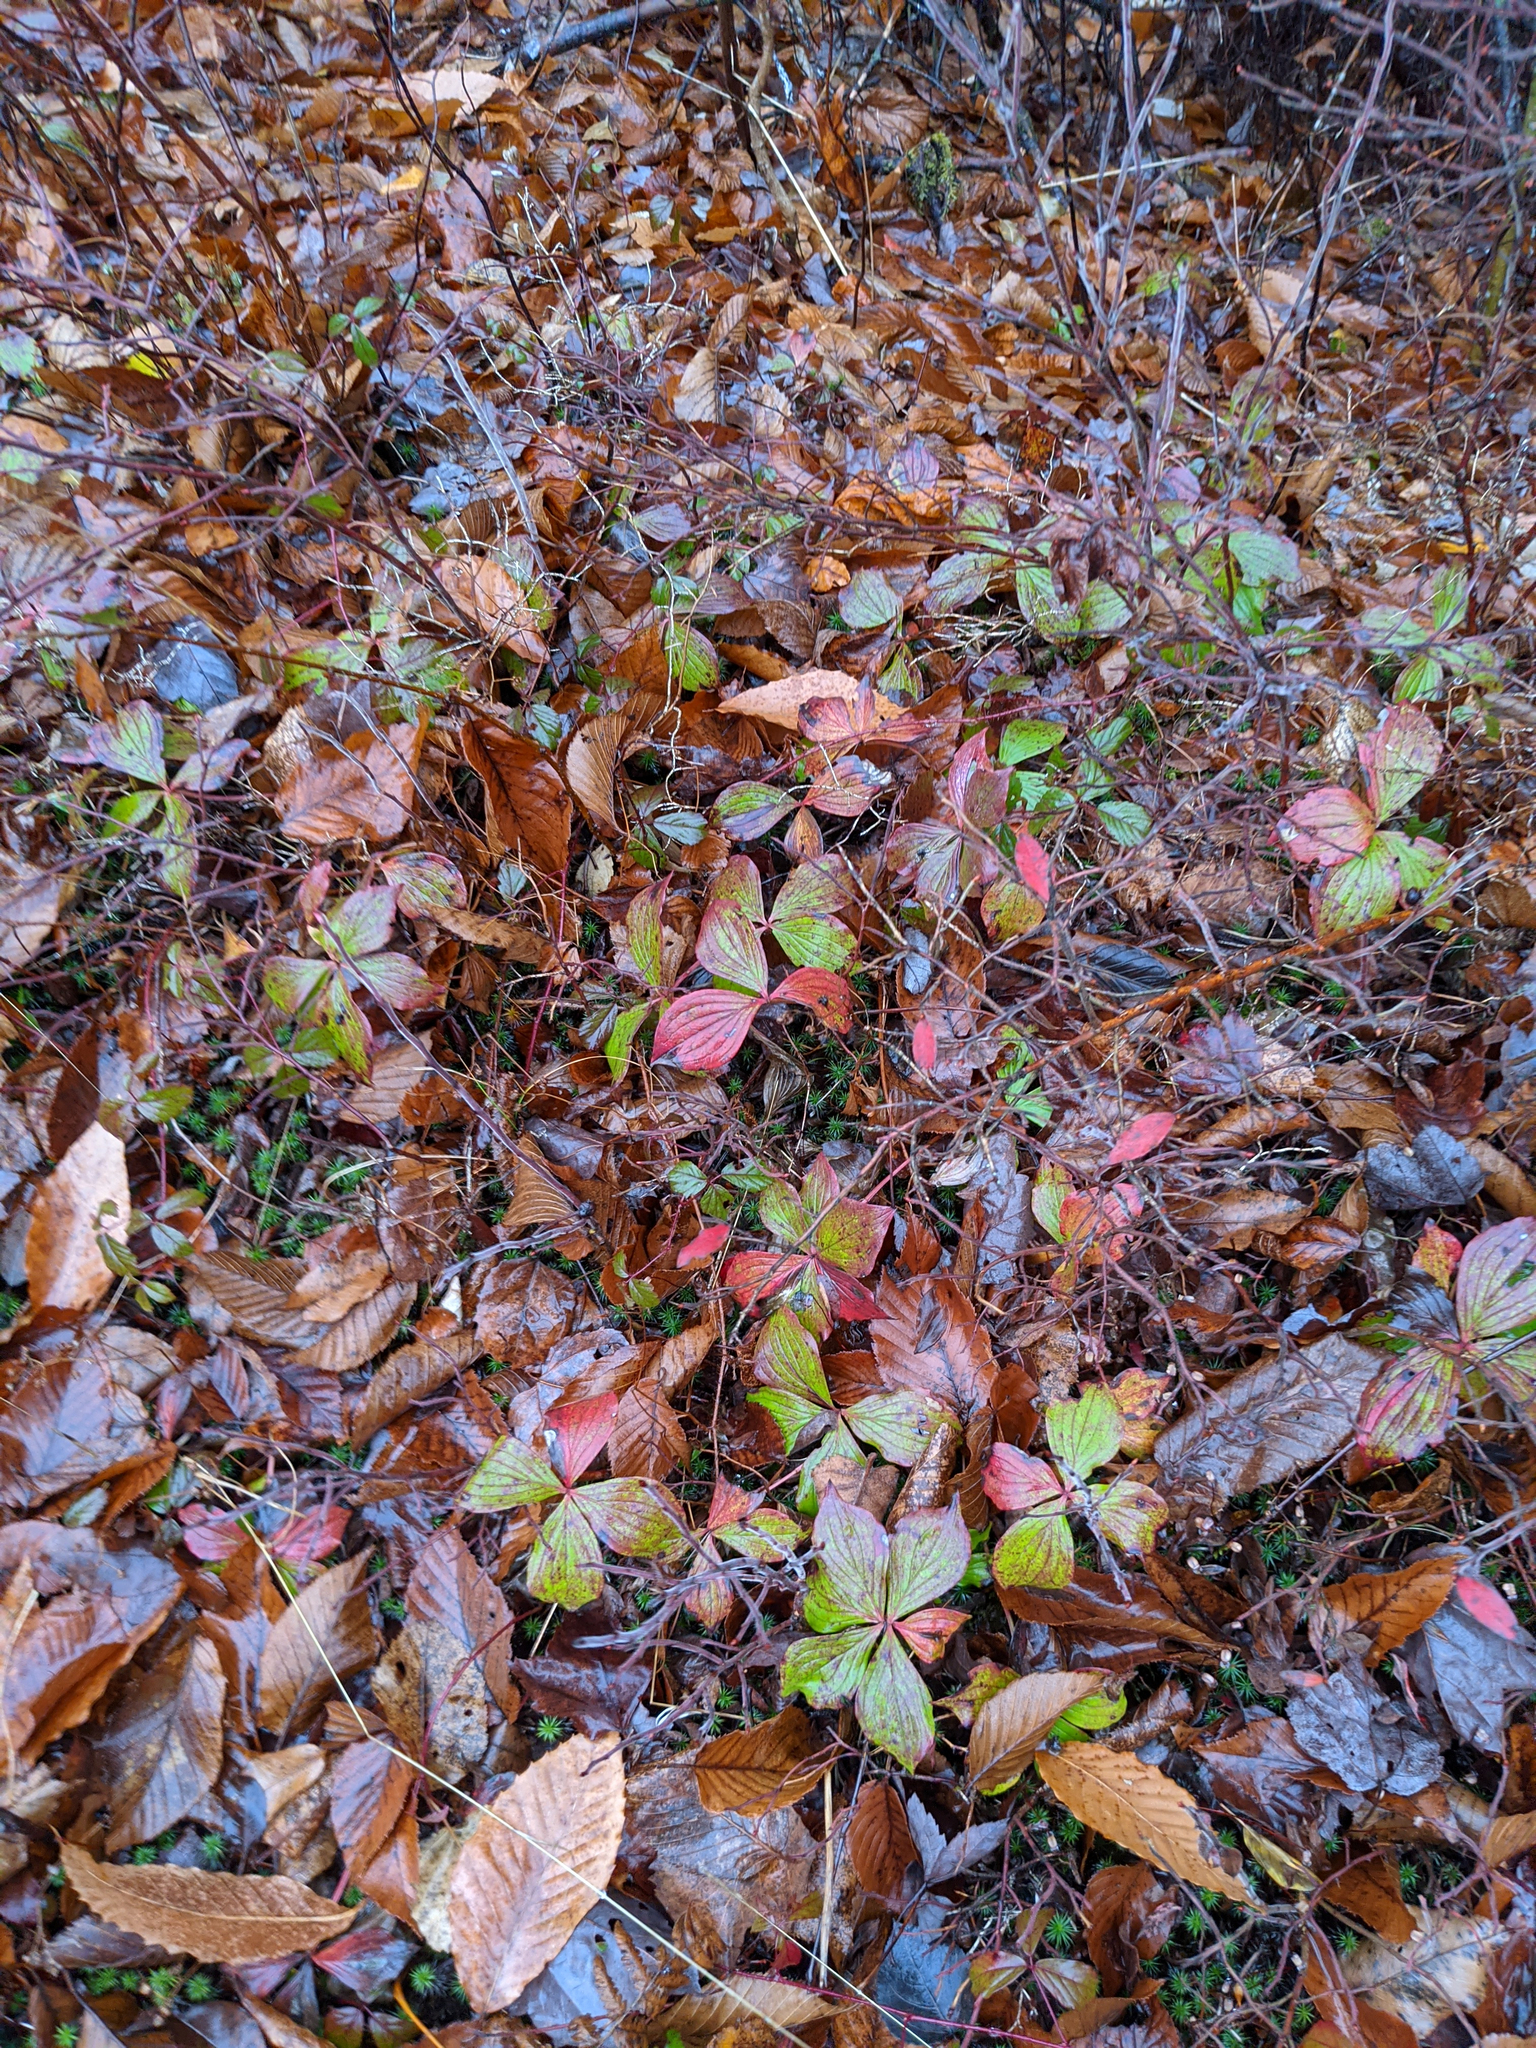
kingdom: Plantae
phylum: Tracheophyta
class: Magnoliopsida
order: Cornales
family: Cornaceae
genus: Cornus
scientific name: Cornus canadensis
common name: Creeping dogwood
